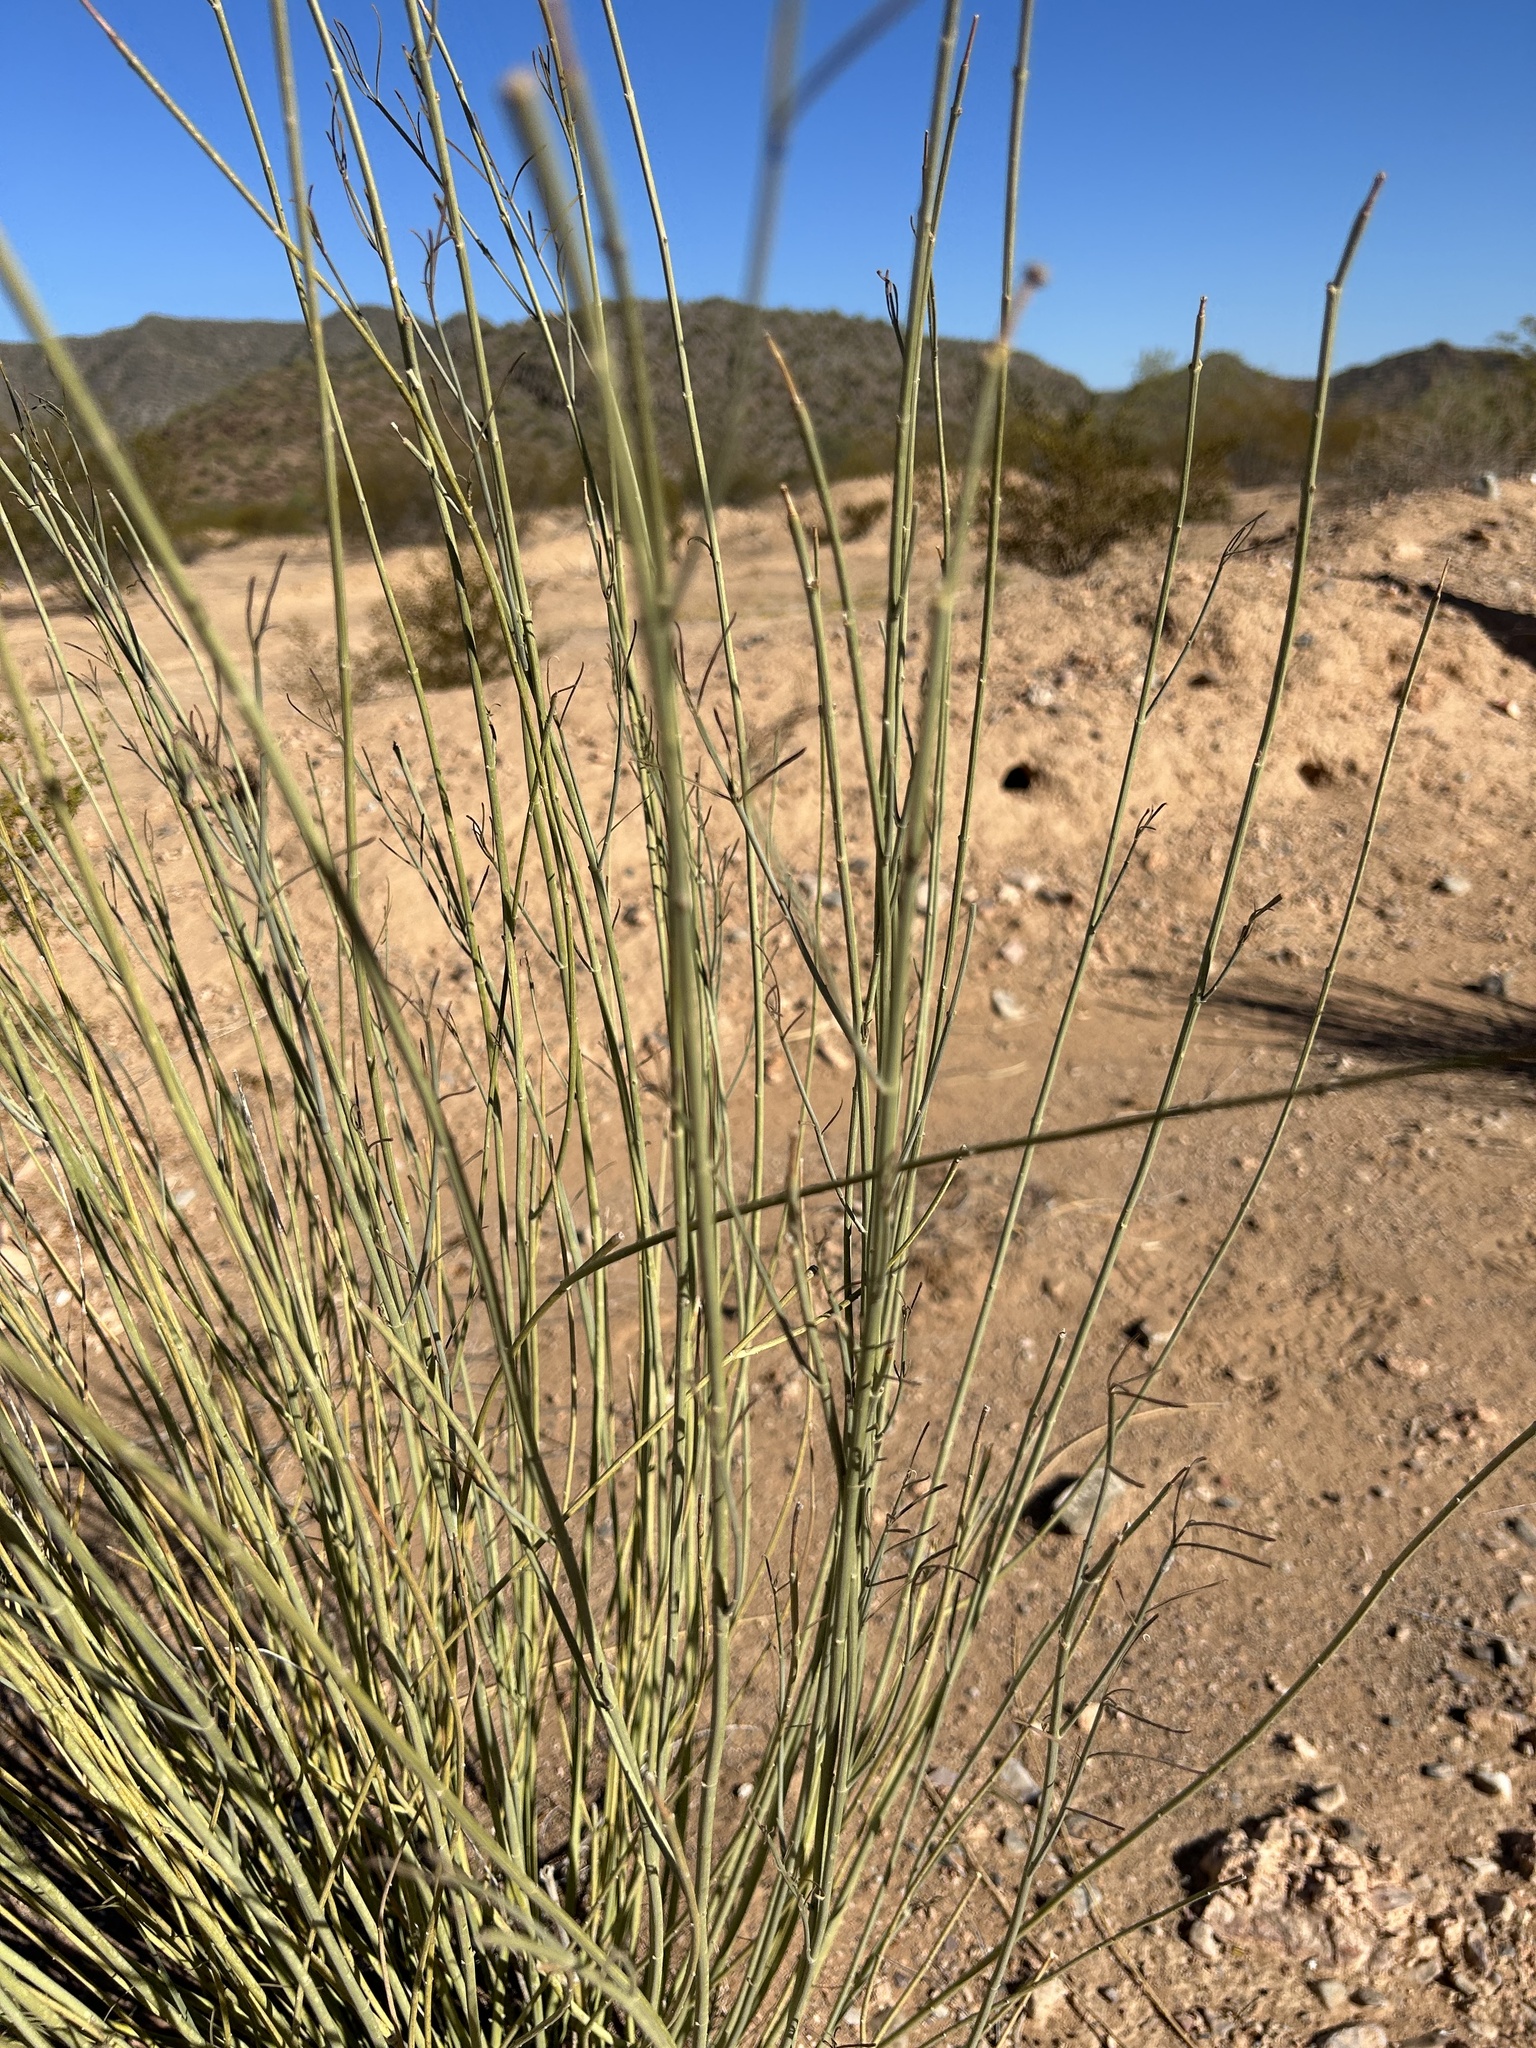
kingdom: Plantae
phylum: Tracheophyta
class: Magnoliopsida
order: Gentianales
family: Apocynaceae
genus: Asclepias
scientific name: Asclepias subulata
